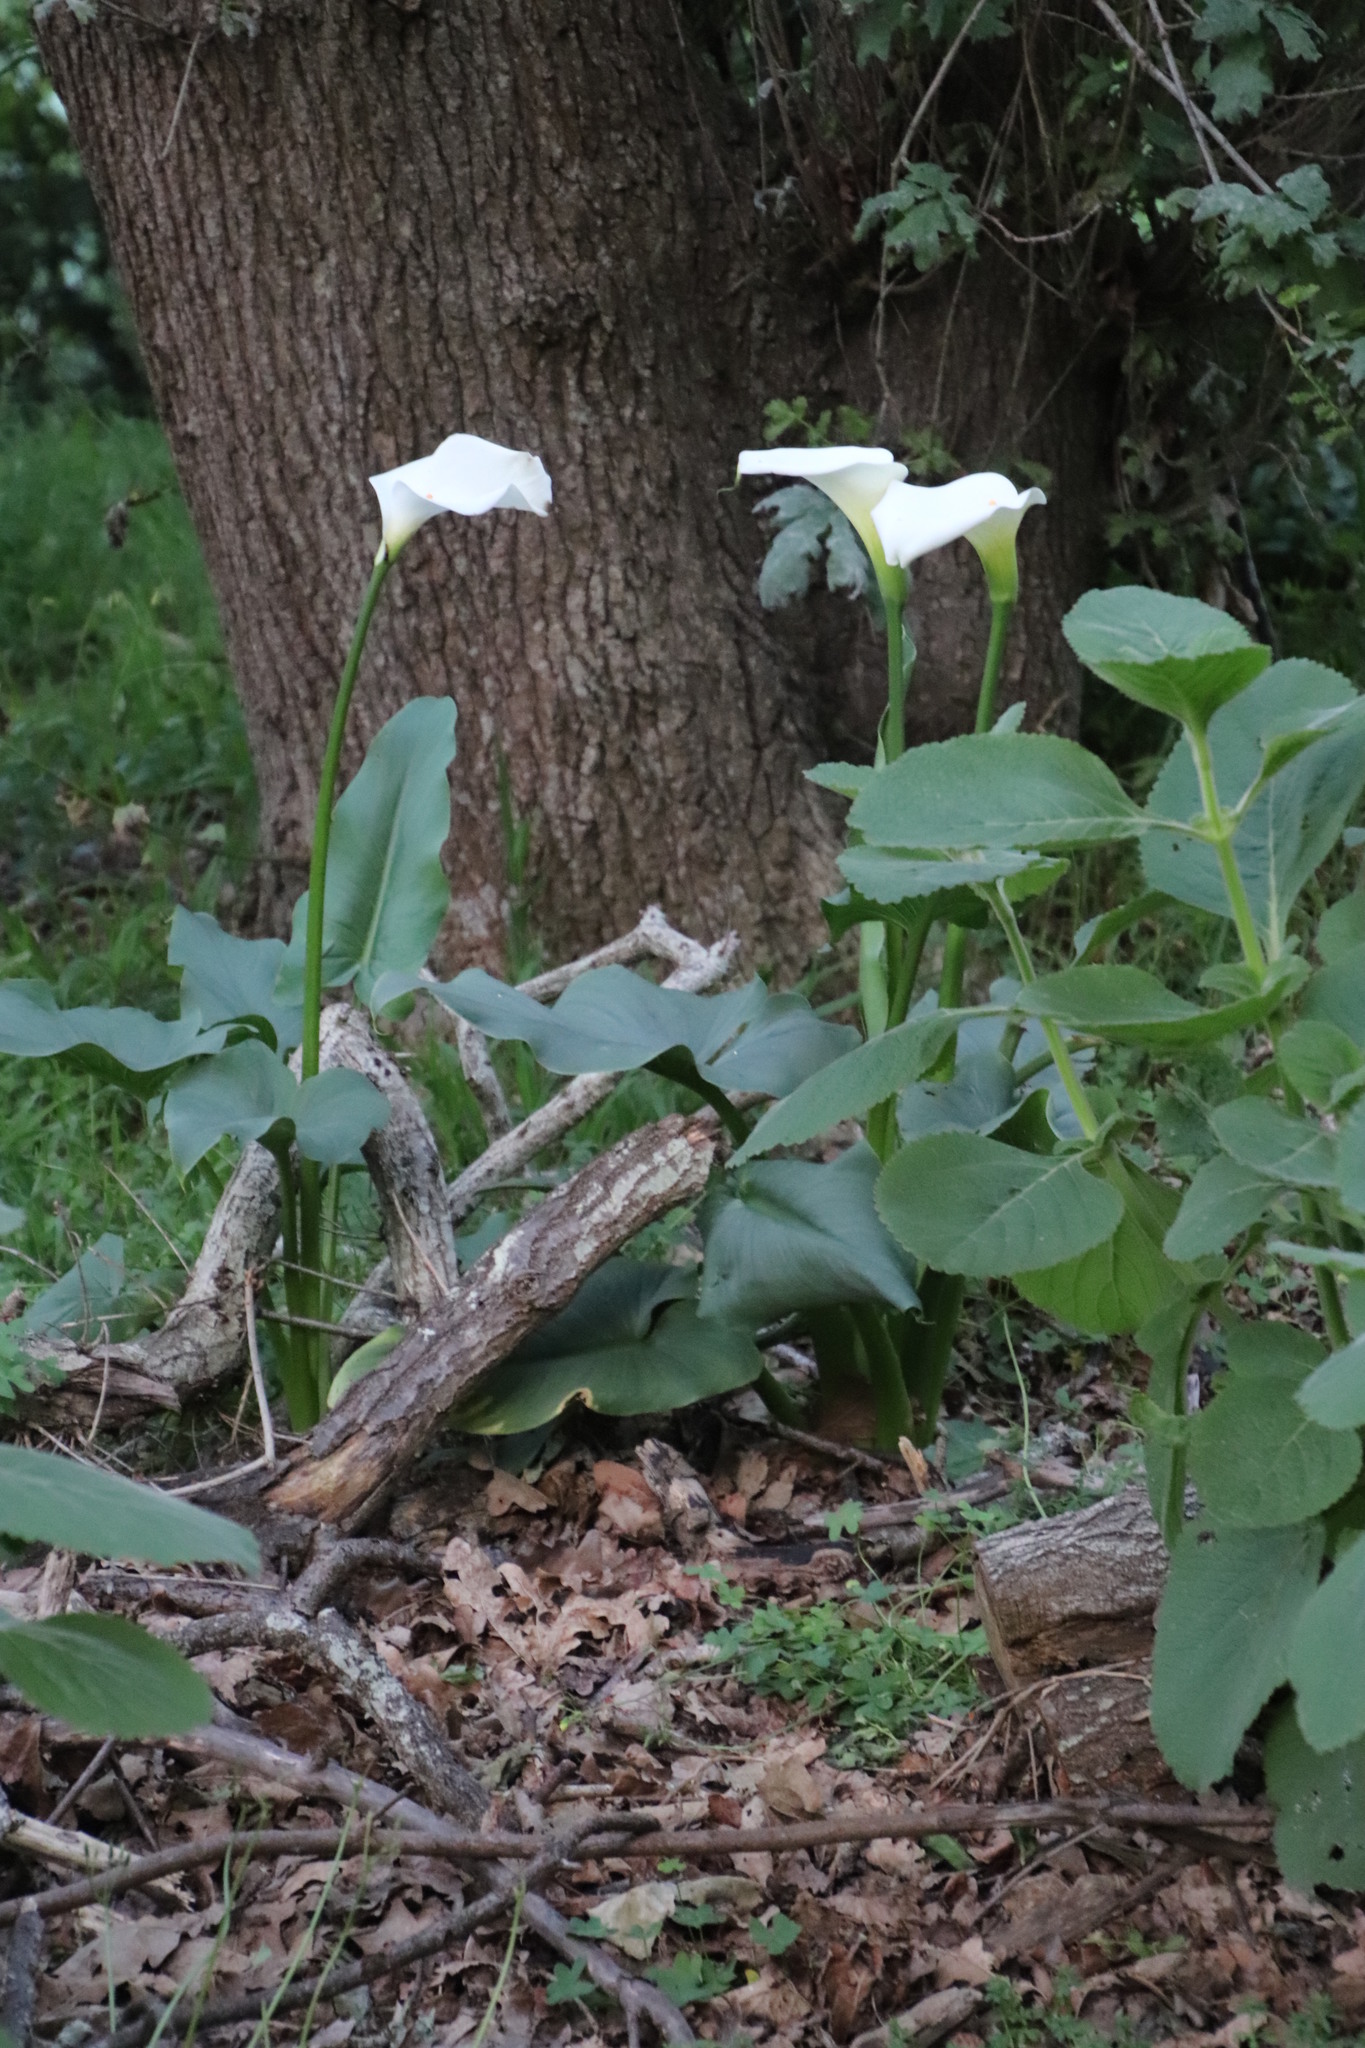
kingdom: Plantae
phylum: Tracheophyta
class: Liliopsida
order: Alismatales
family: Araceae
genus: Zantedeschia
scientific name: Zantedeschia aethiopica
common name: Altar-lily
